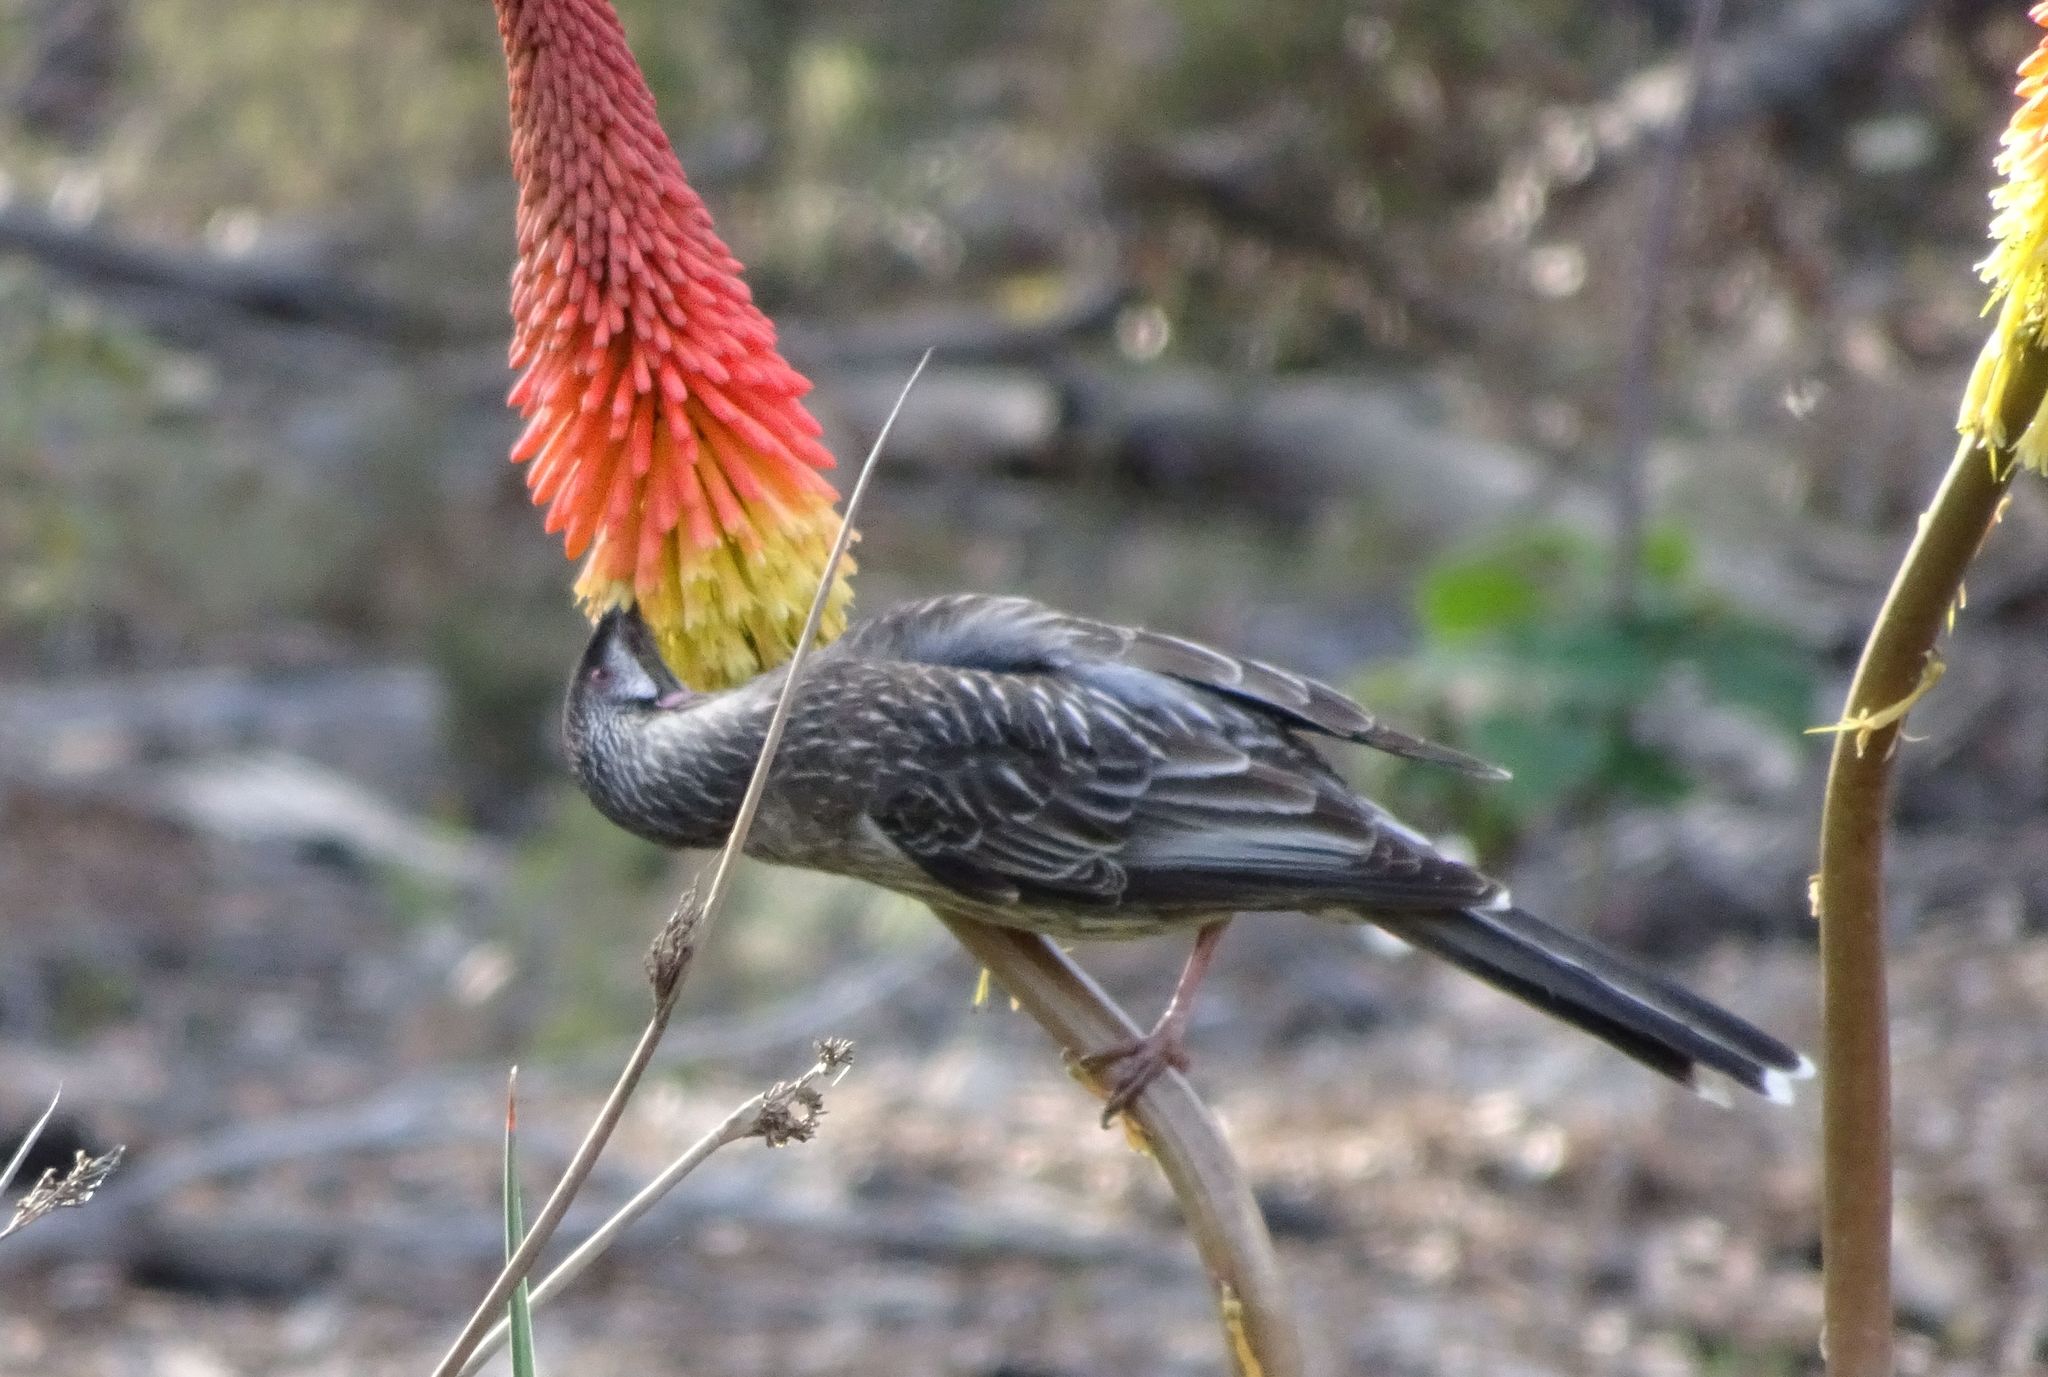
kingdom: Animalia
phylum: Chordata
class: Aves
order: Passeriformes
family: Meliphagidae
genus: Anthochaera
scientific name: Anthochaera carunculata
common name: Red wattlebird
